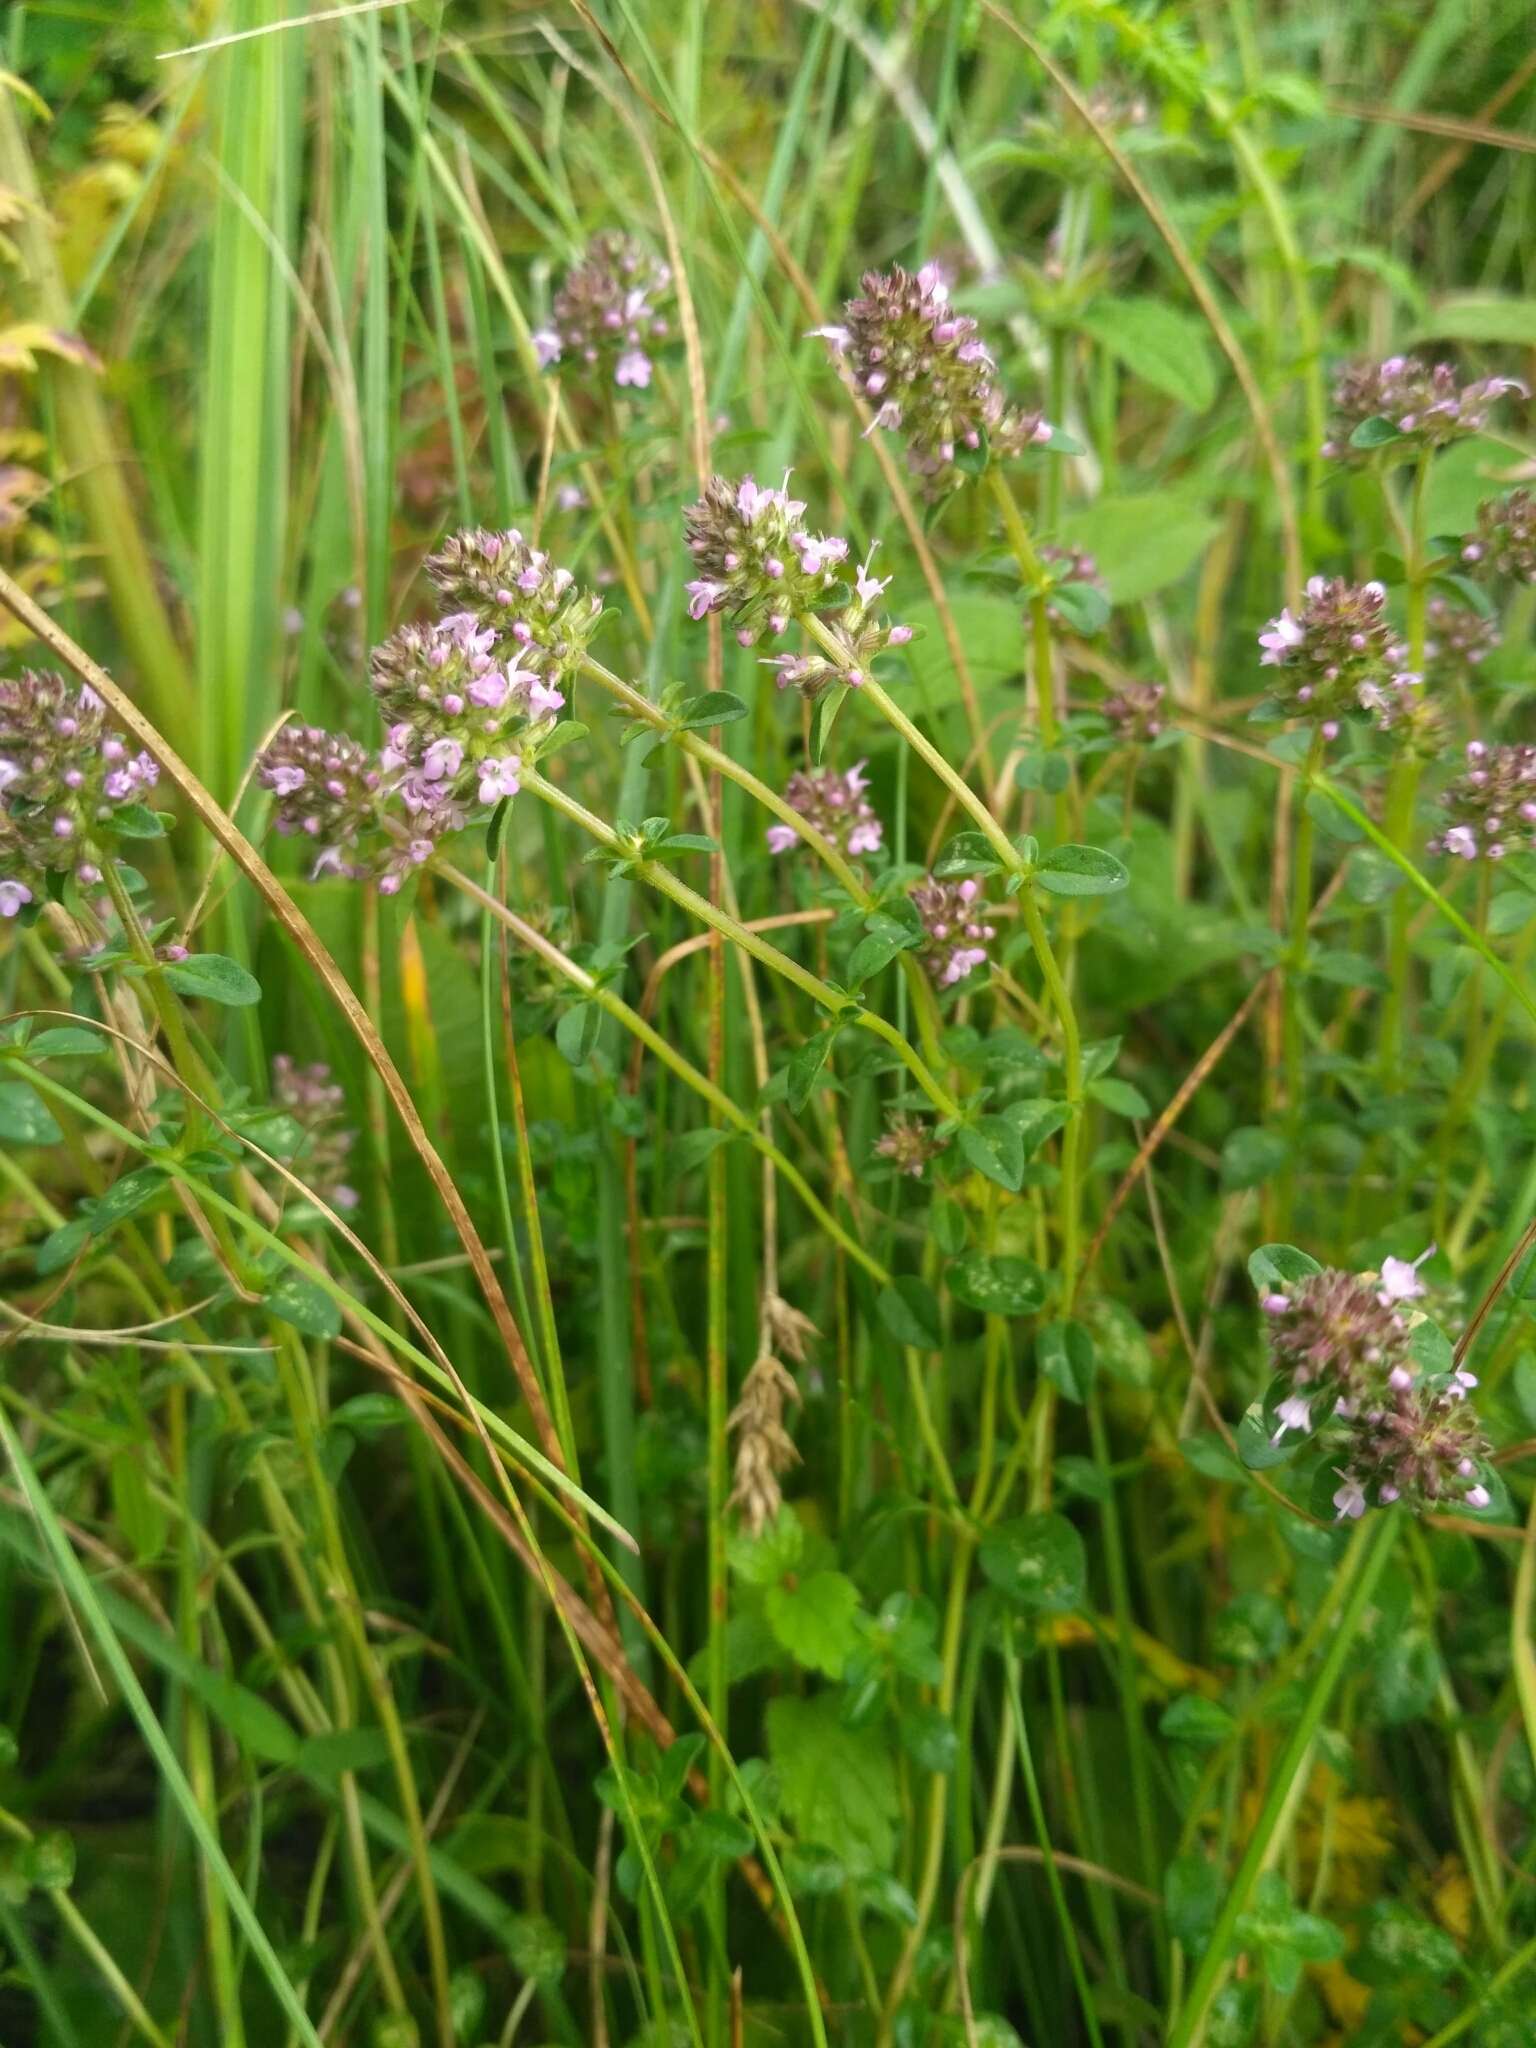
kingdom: Plantae
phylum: Tracheophyta
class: Magnoliopsida
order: Lamiales
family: Lamiaceae
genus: Thymus
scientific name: Thymus pulegioides
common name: Large thyme
